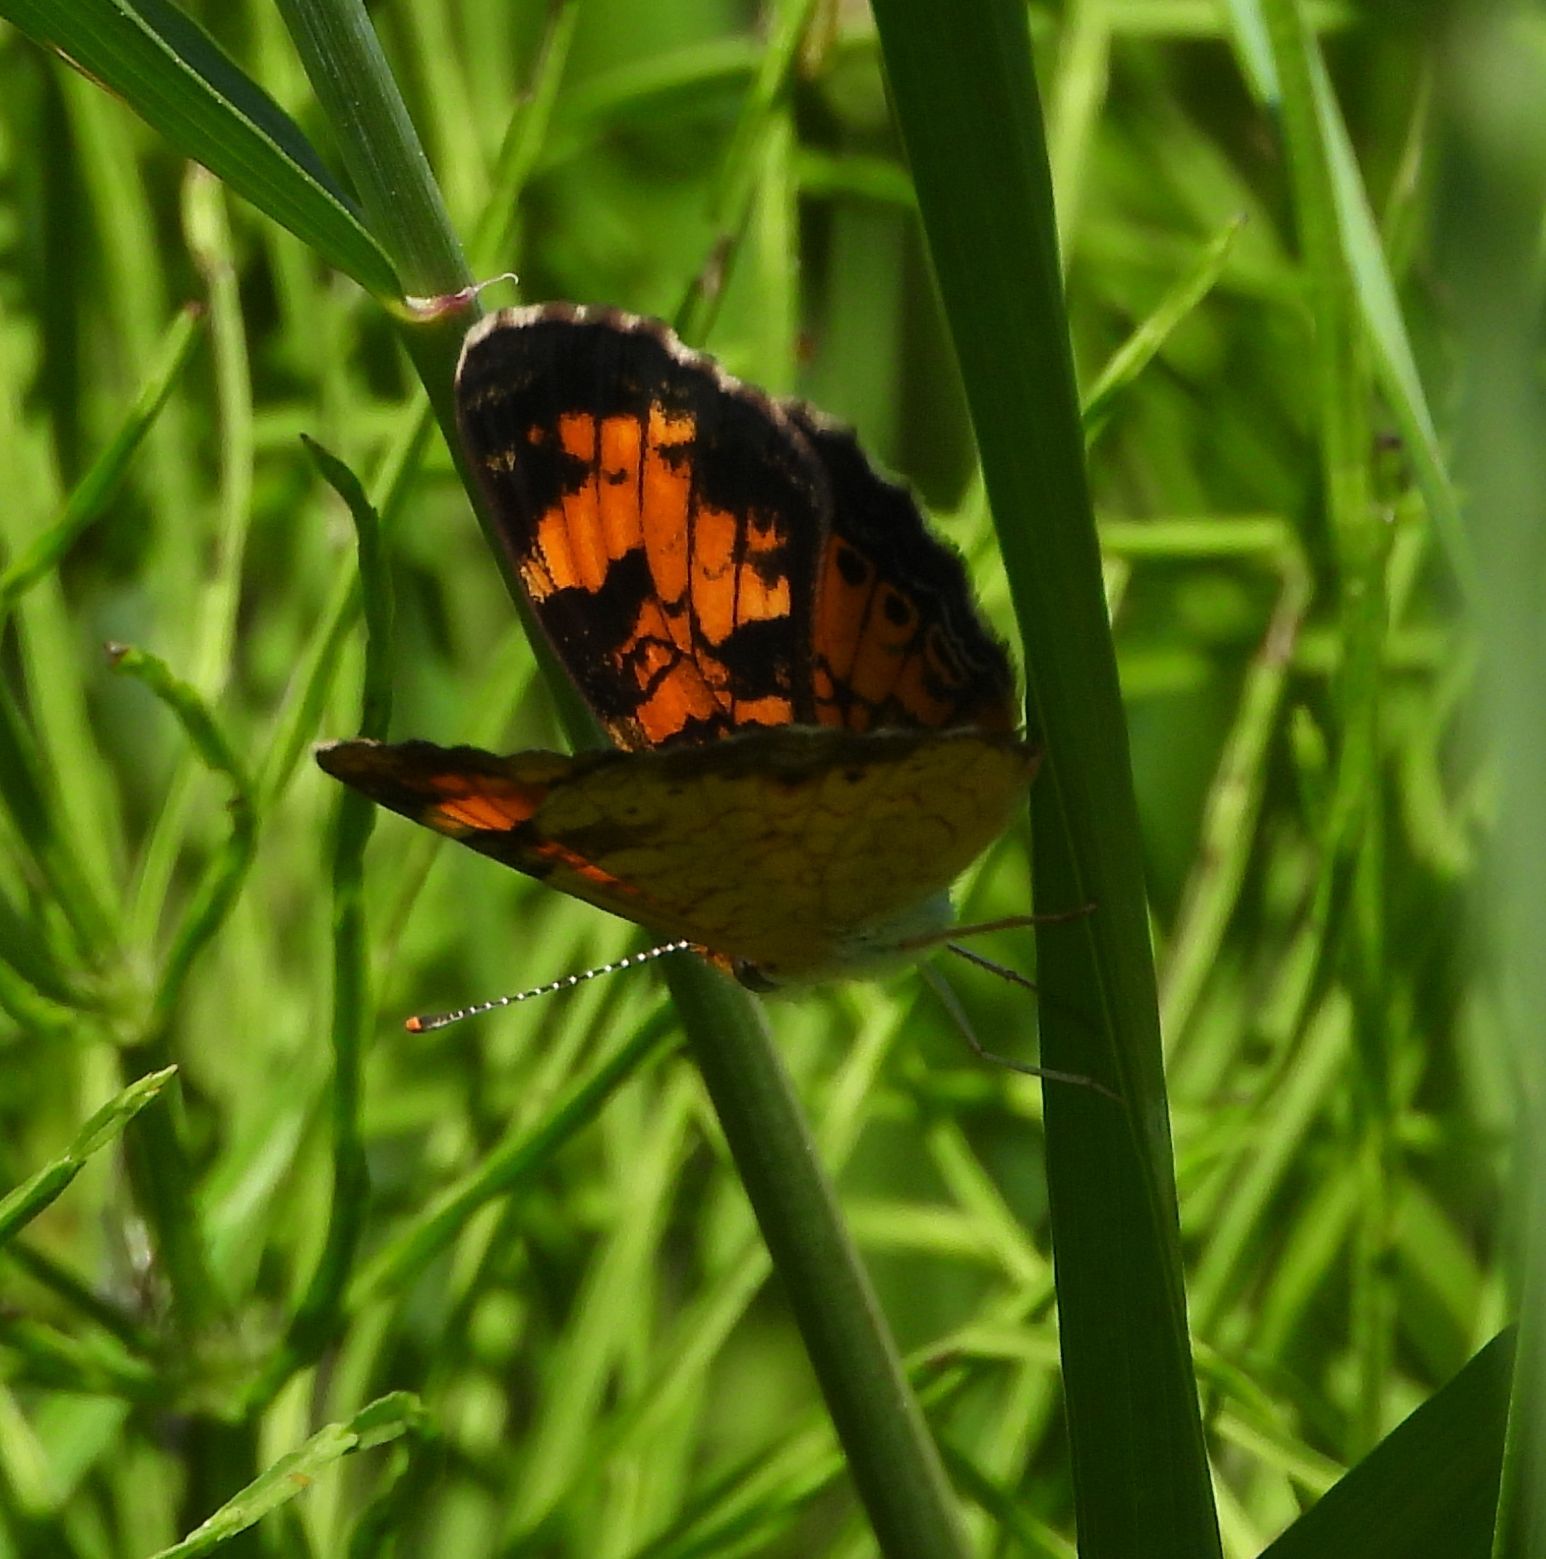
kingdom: Animalia
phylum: Arthropoda
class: Insecta
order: Lepidoptera
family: Nymphalidae
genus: Phyciodes
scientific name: Phyciodes tharos
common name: Pearl crescent
